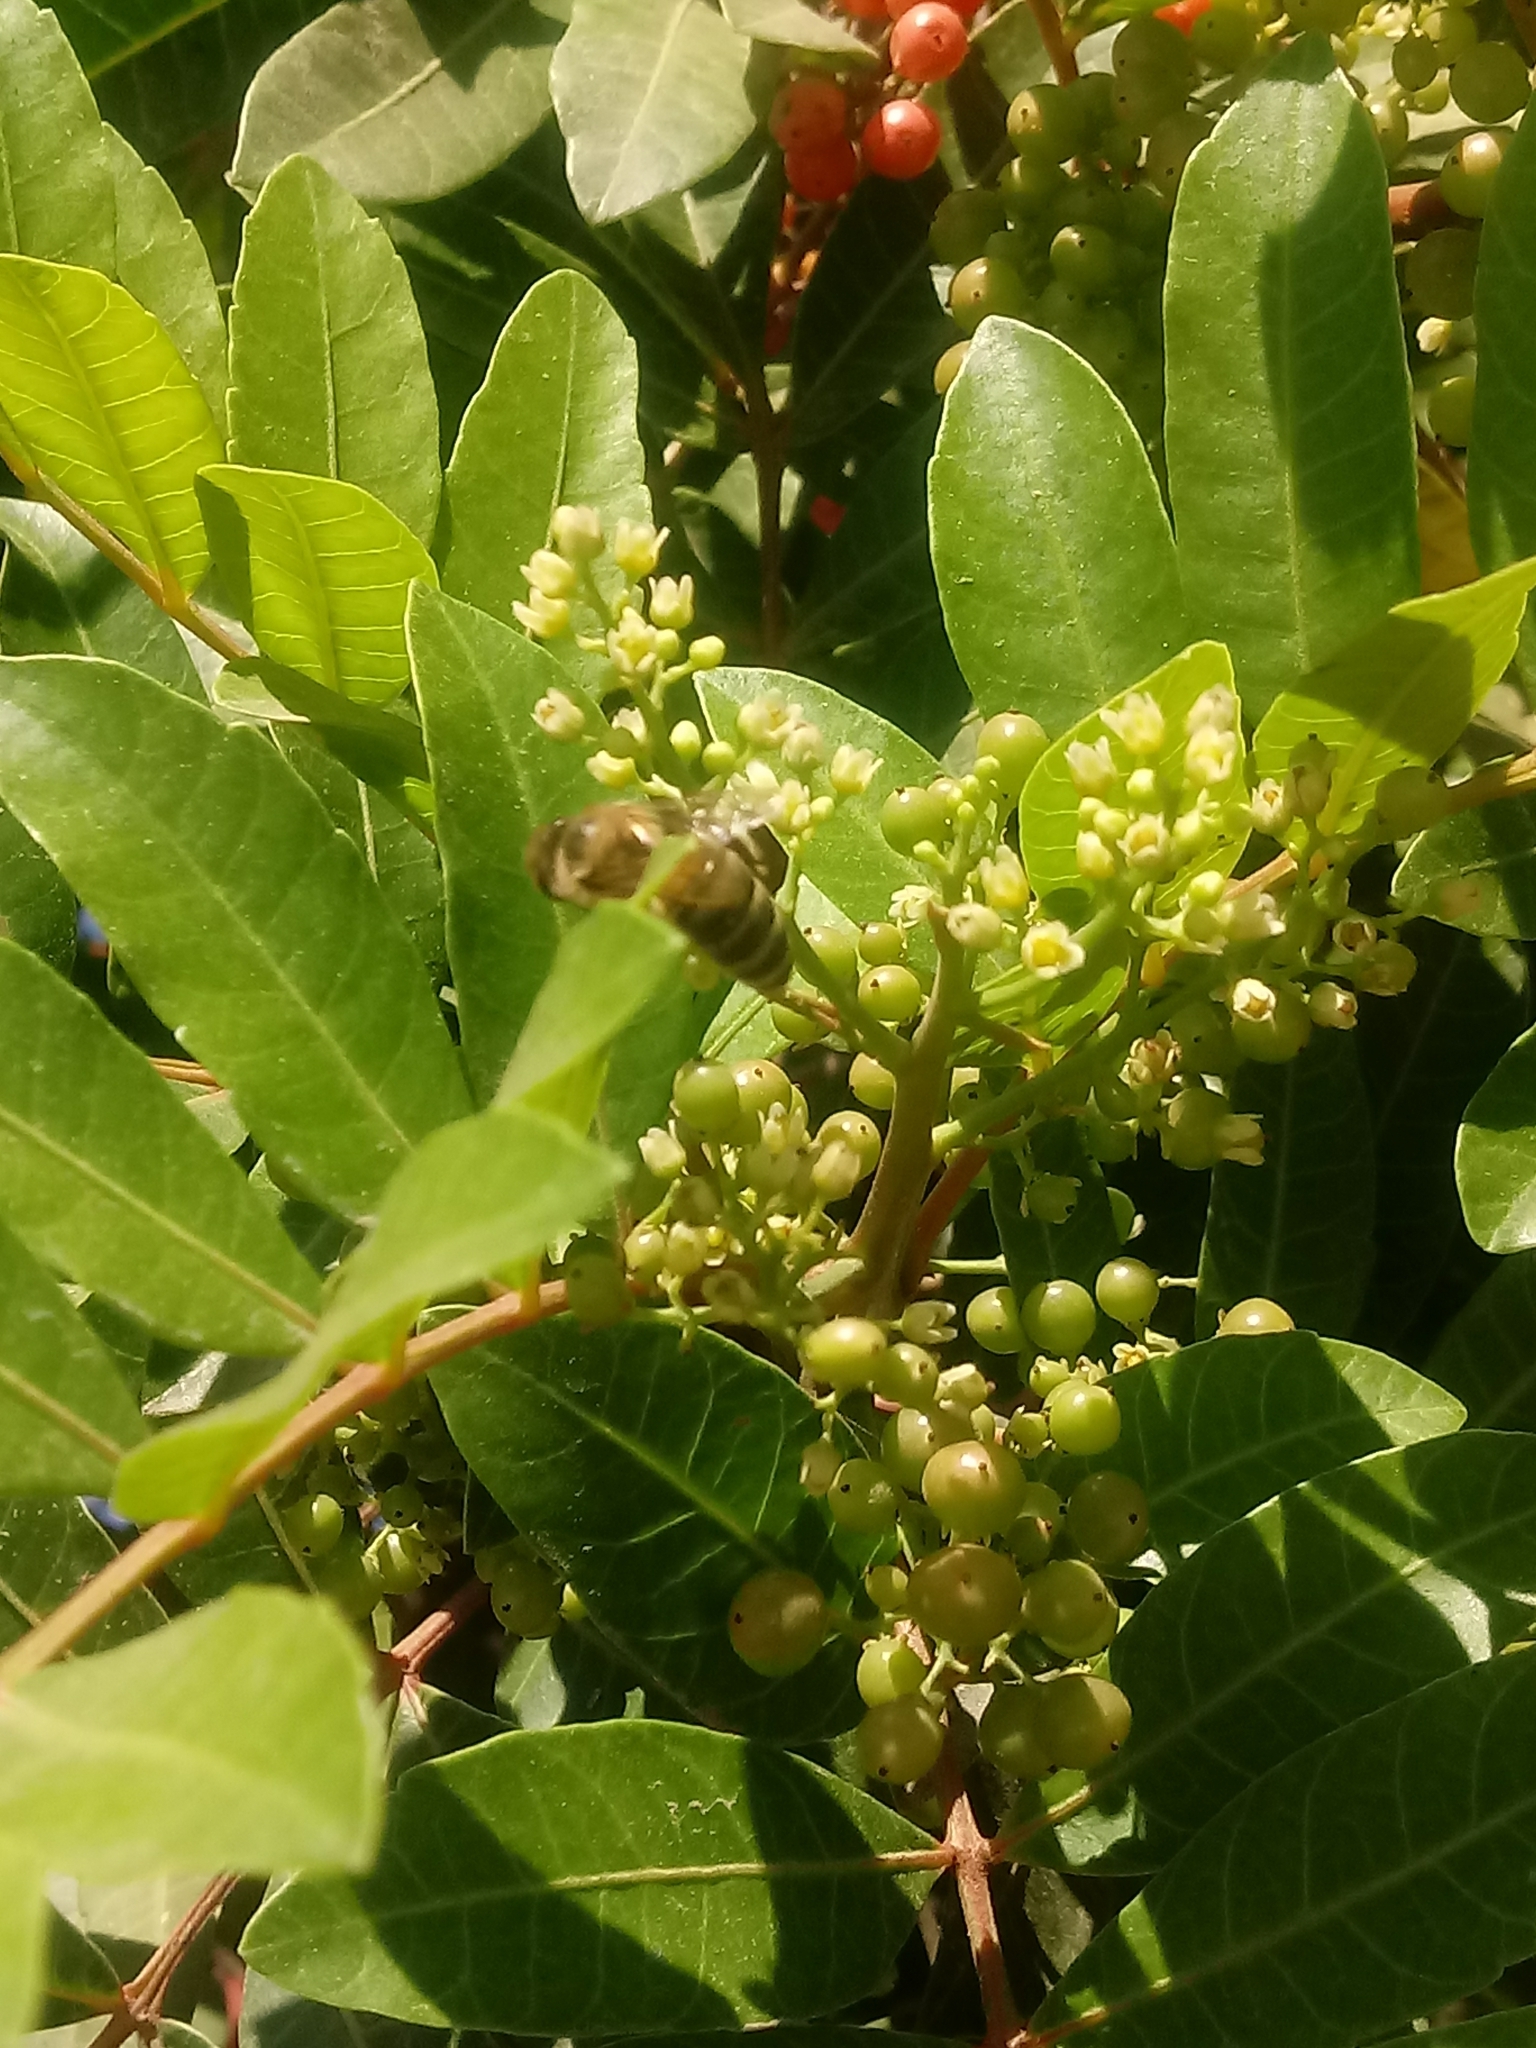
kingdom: Animalia
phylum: Arthropoda
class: Insecta
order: Hymenoptera
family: Apidae
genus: Apis
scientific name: Apis mellifera
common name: Honey bee
